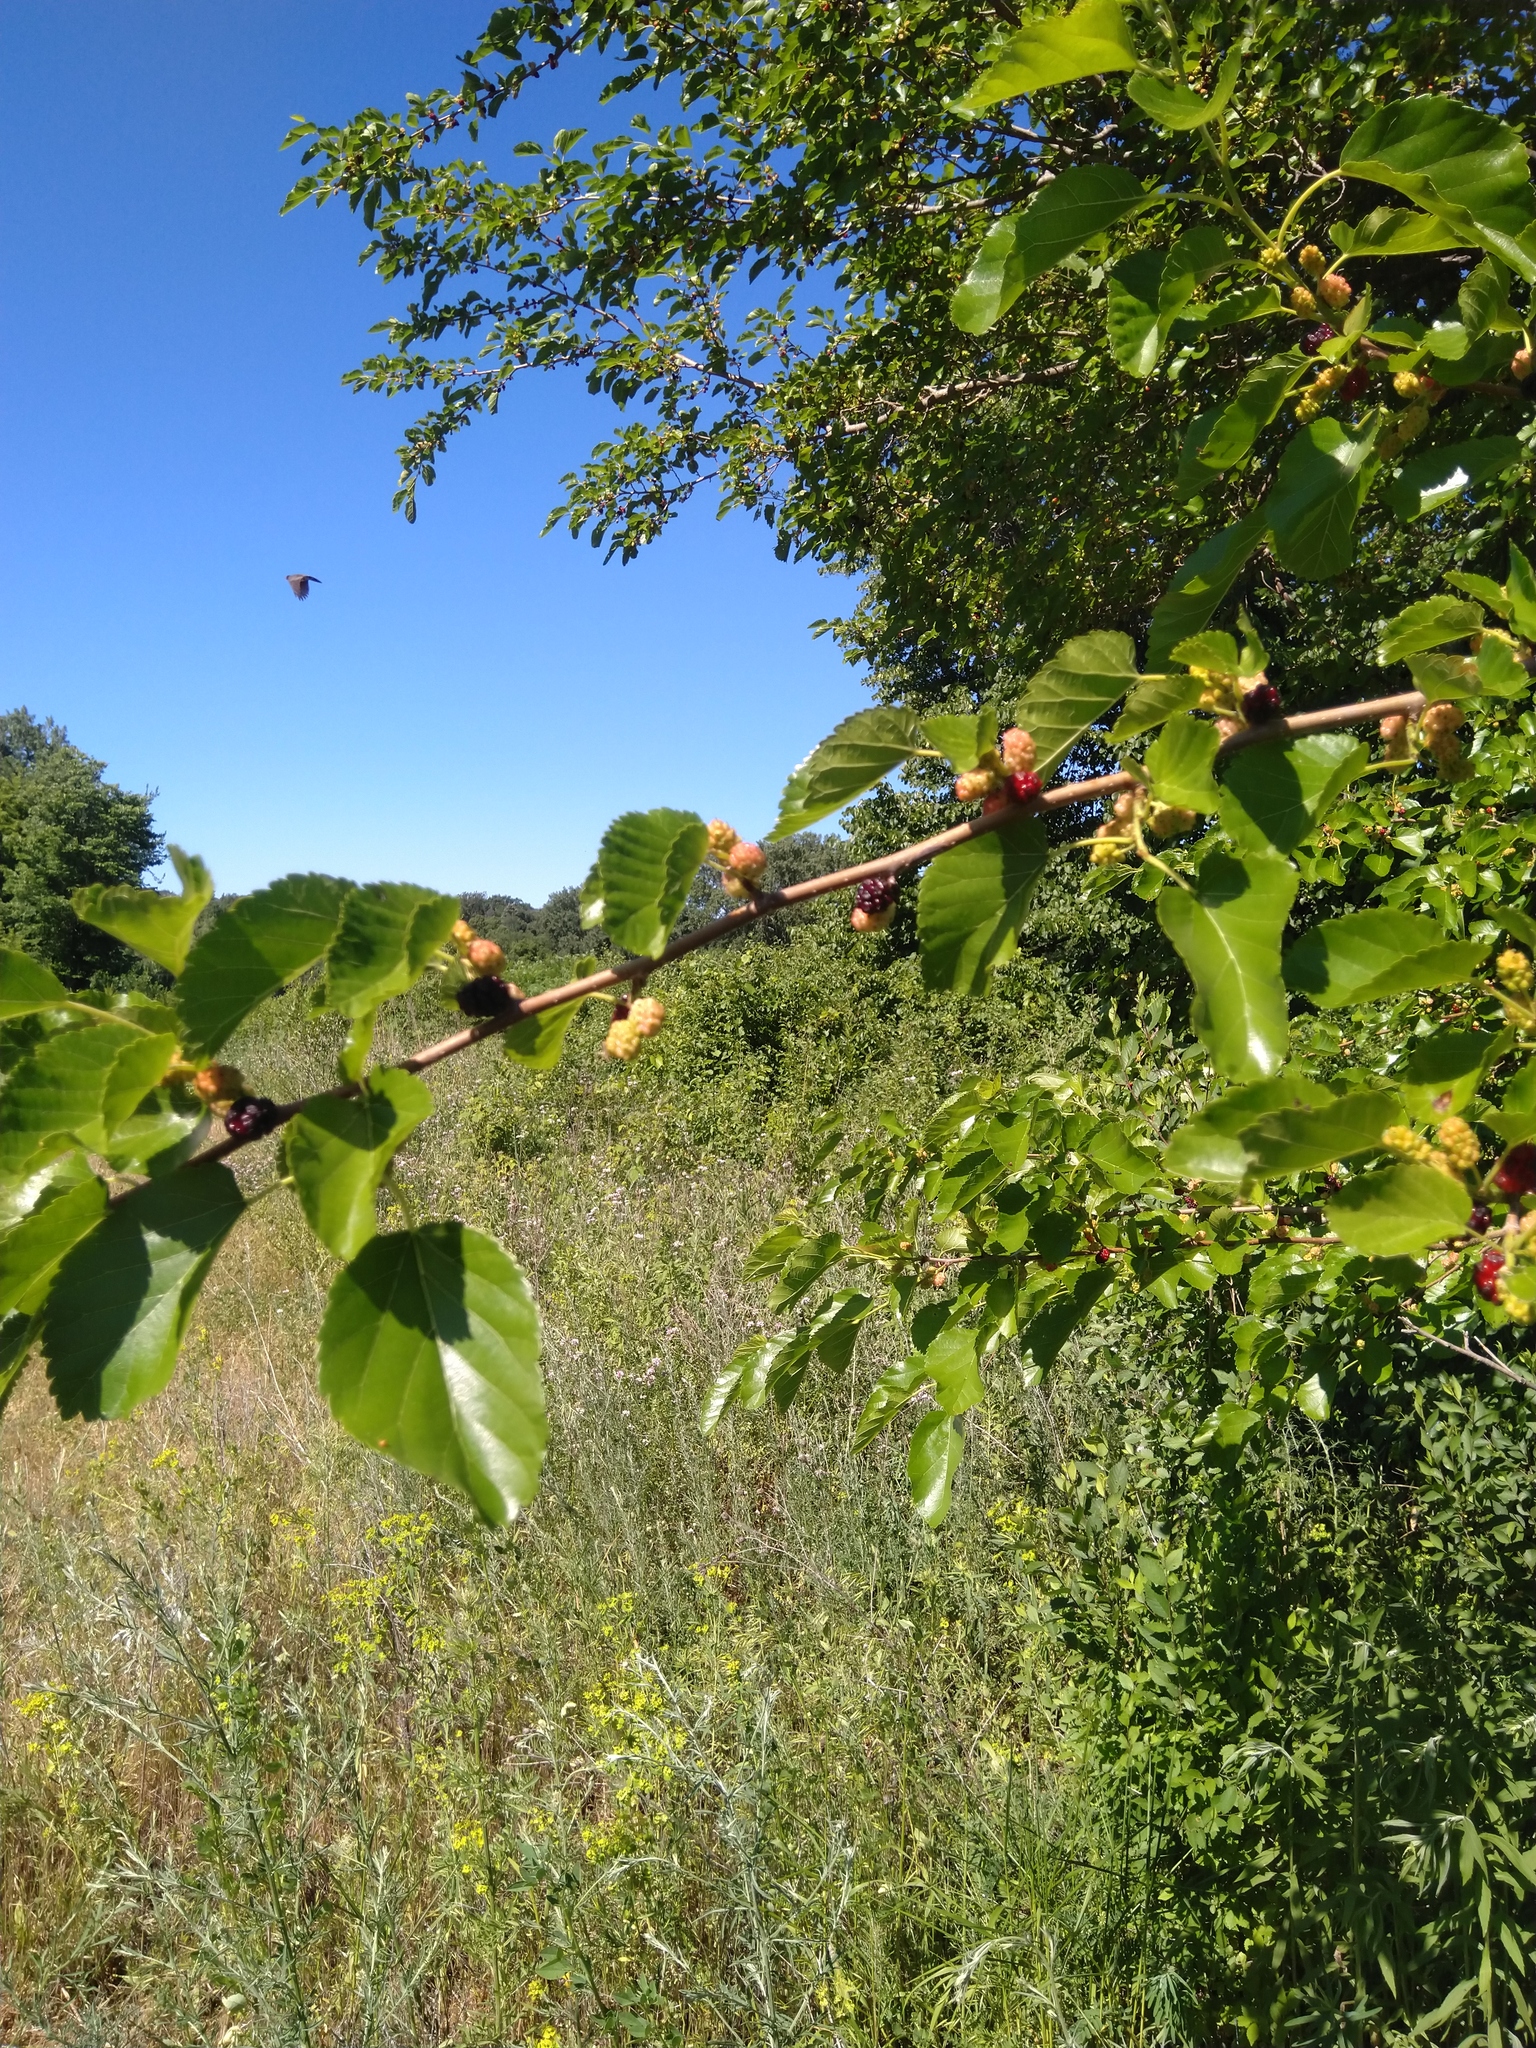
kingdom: Plantae
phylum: Tracheophyta
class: Magnoliopsida
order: Rosales
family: Moraceae
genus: Morus
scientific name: Morus alba
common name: White mulberry
